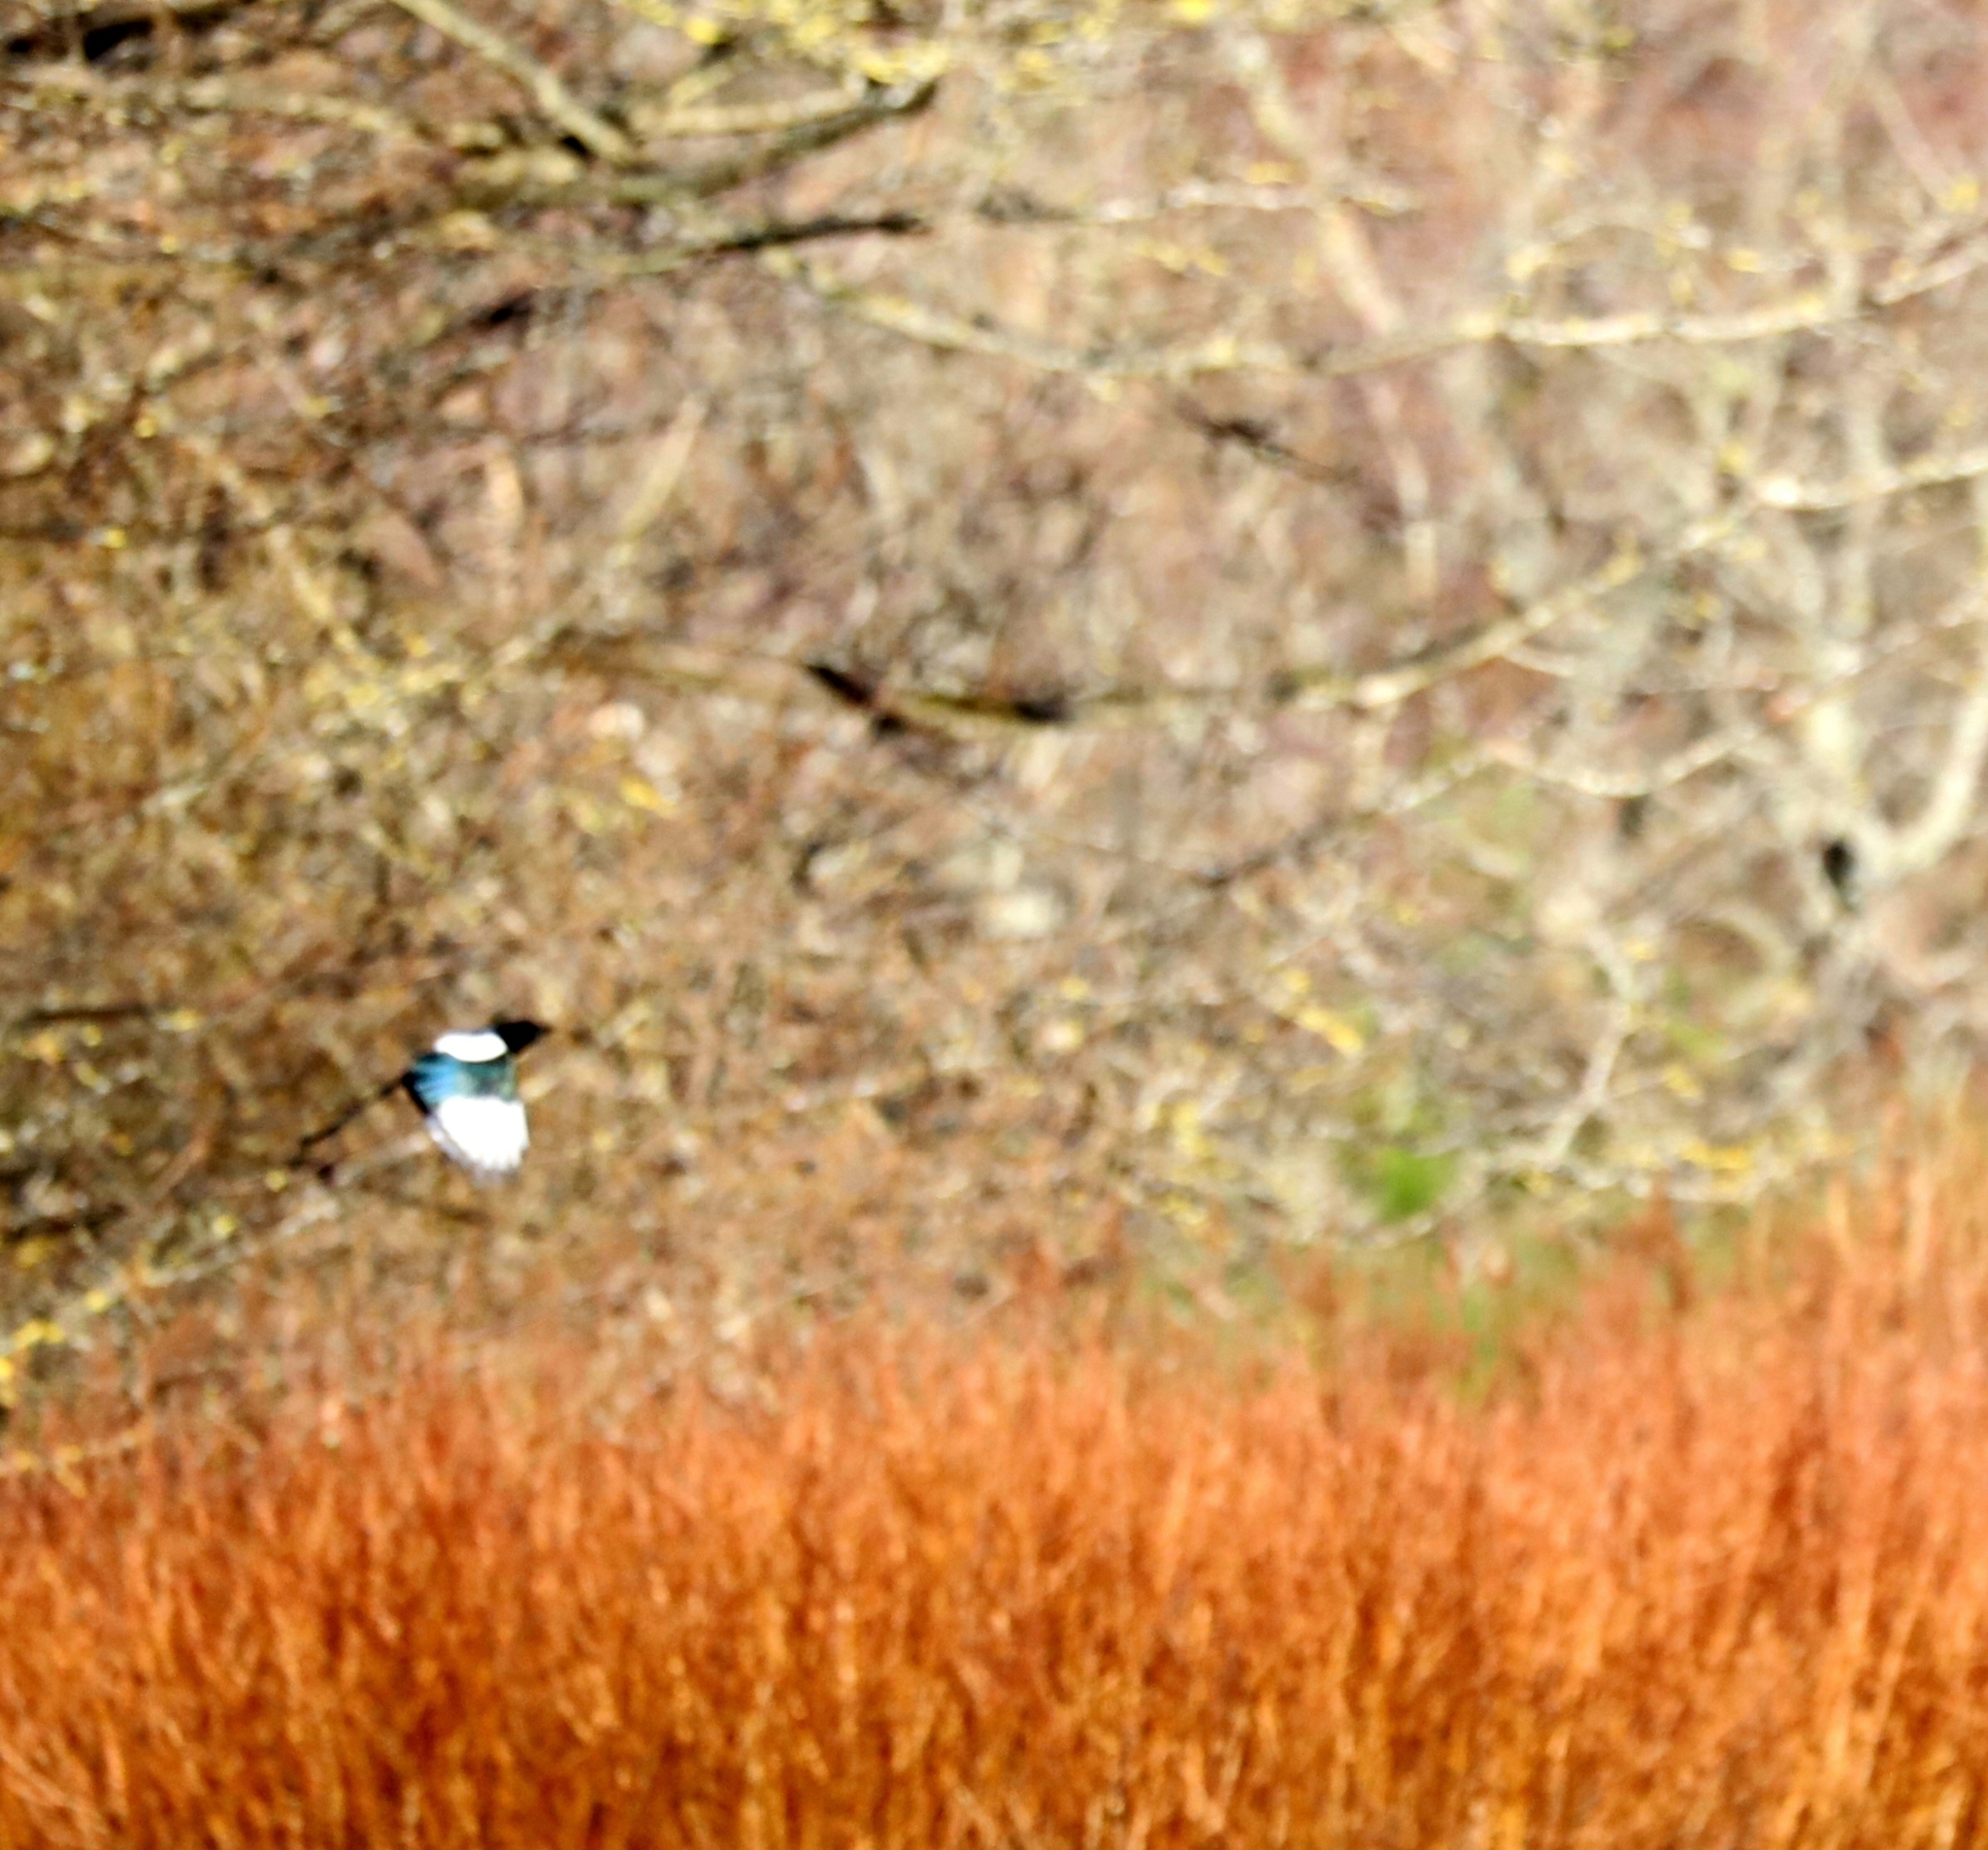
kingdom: Animalia
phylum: Chordata
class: Aves
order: Passeriformes
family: Corvidae
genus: Pica
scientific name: Pica pica
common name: Eurasian magpie
